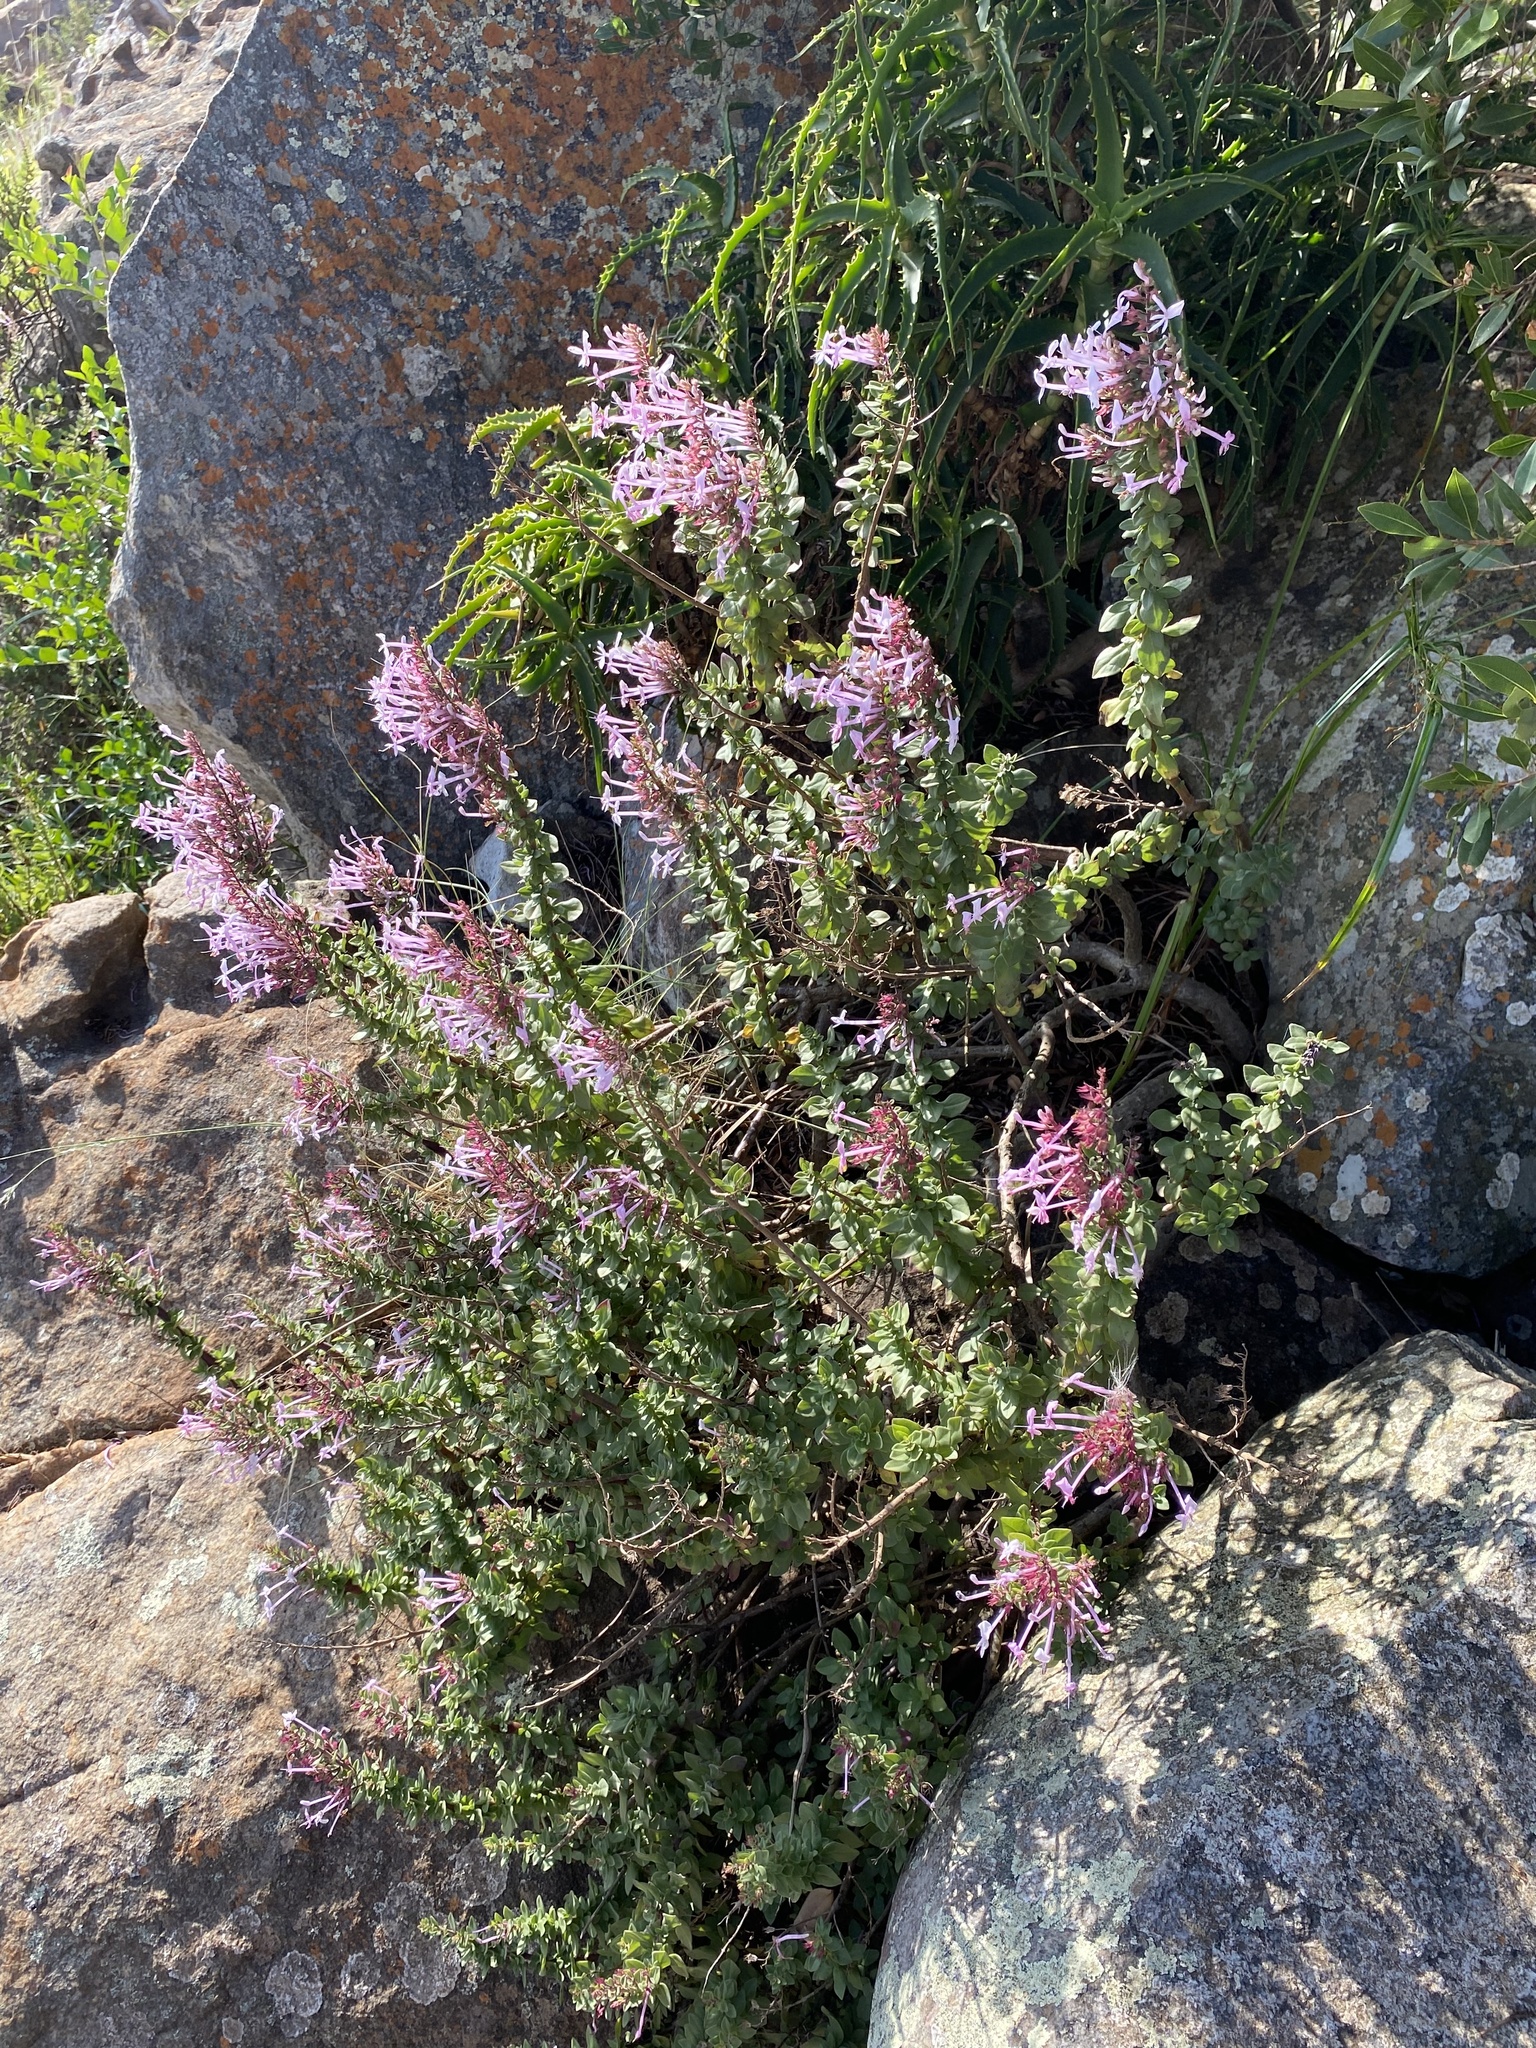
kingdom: Plantae
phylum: Tracheophyta
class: Magnoliopsida
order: Lamiales
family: Lamiaceae
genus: Thorncroftia
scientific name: Thorncroftia greenii
